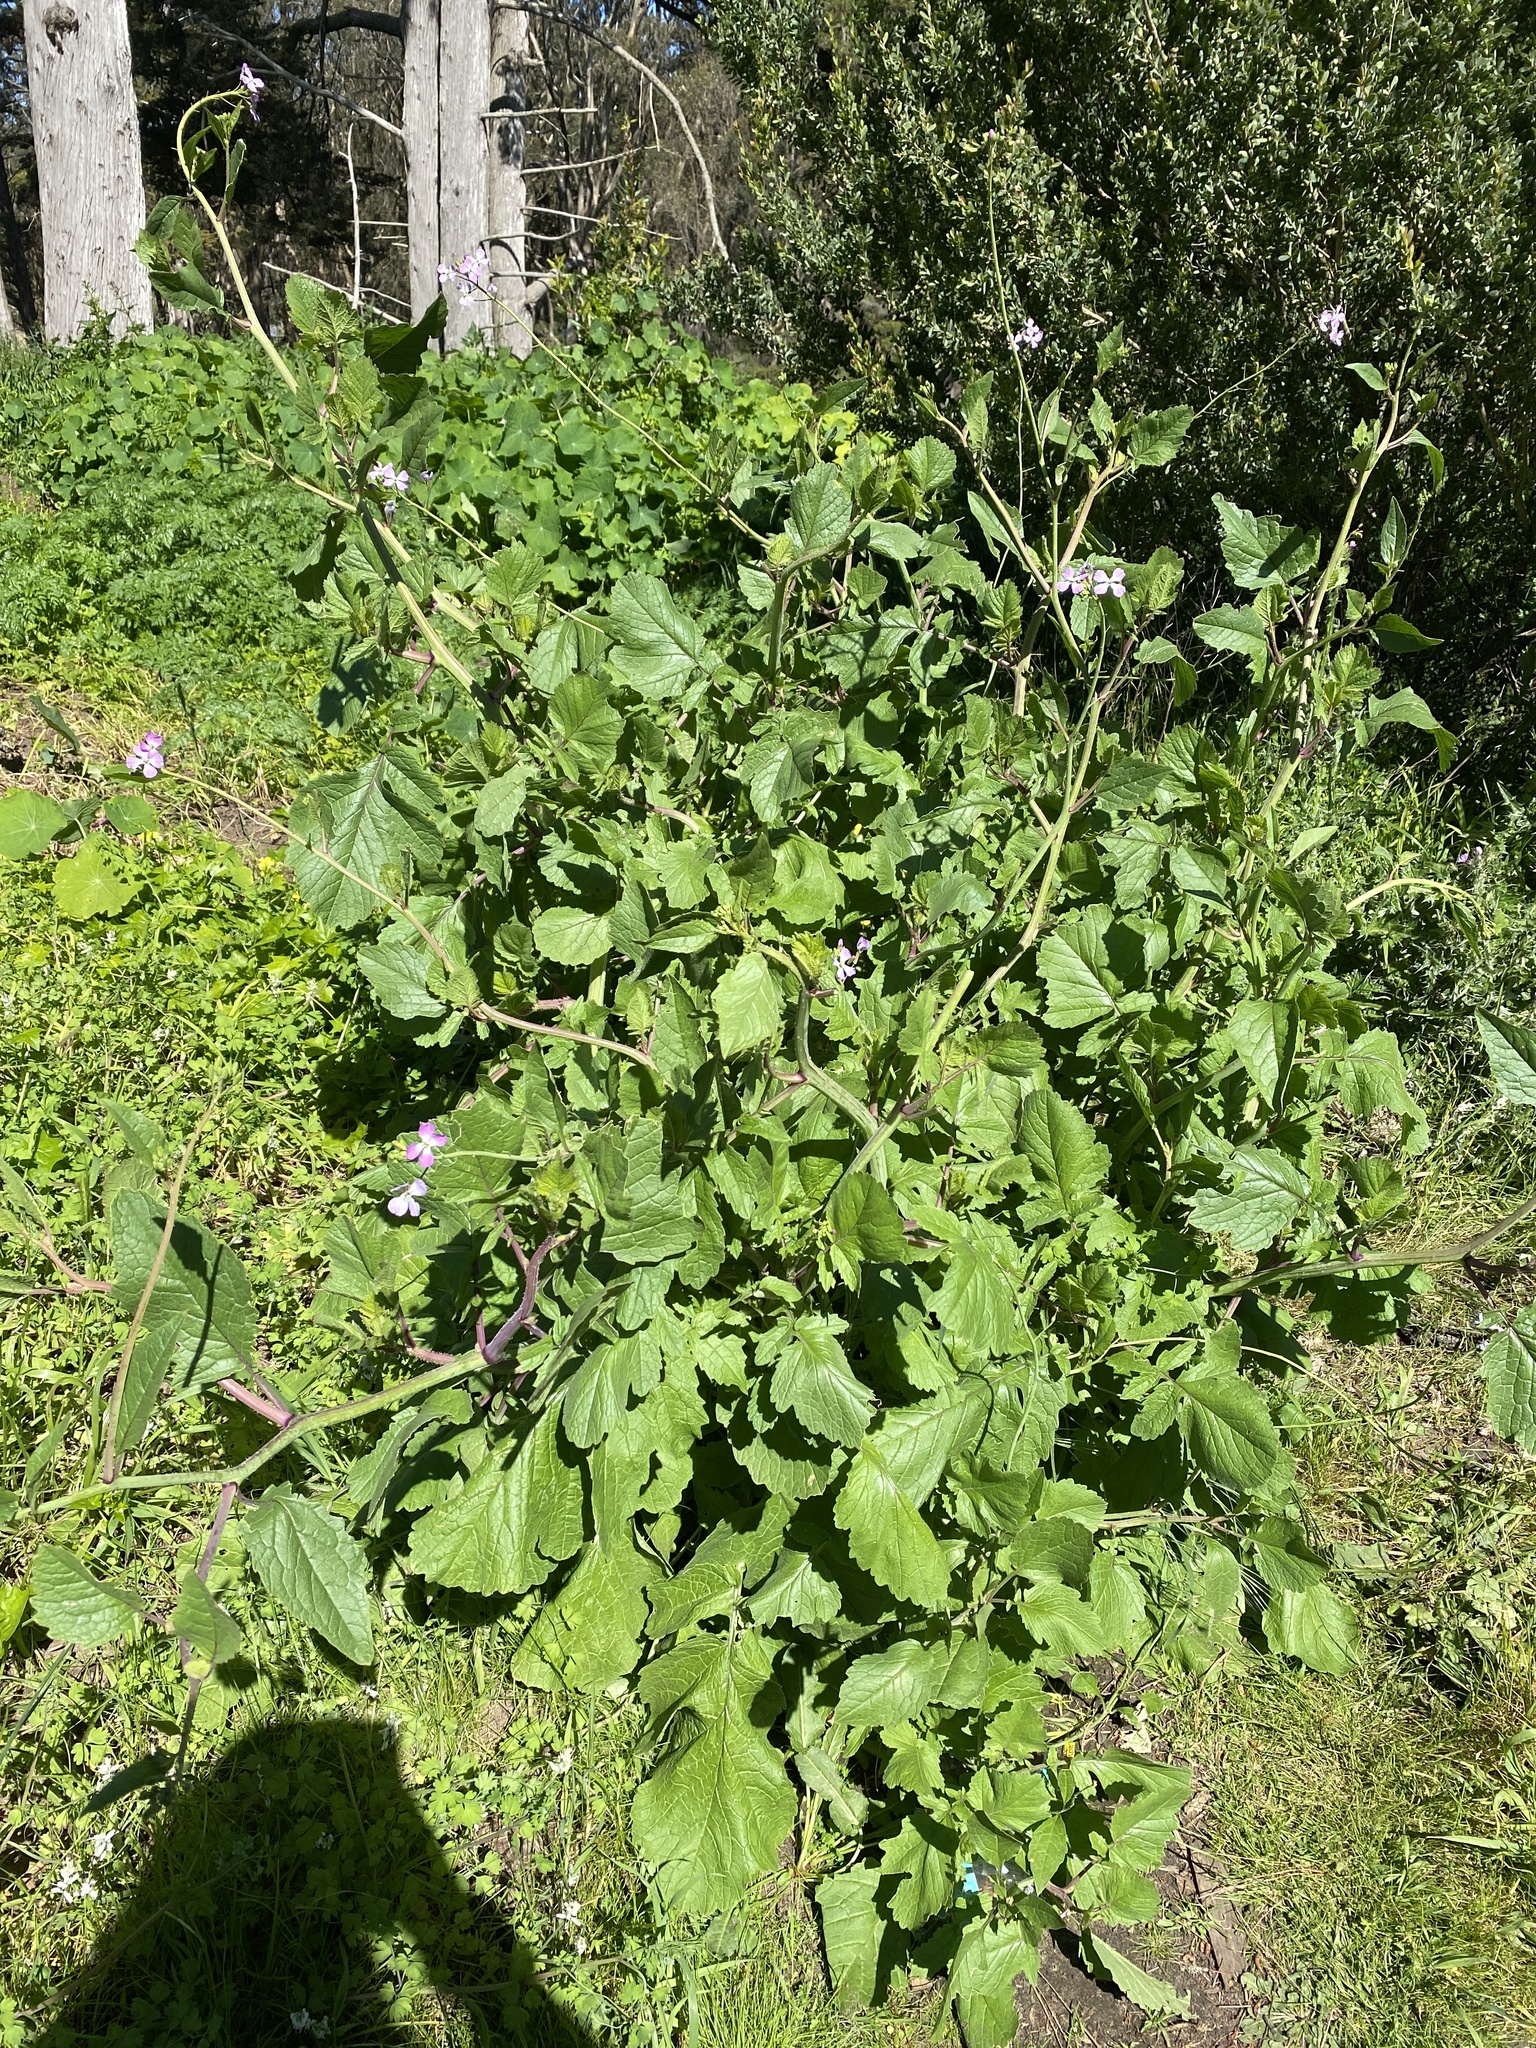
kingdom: Plantae
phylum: Tracheophyta
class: Magnoliopsida
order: Brassicales
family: Brassicaceae
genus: Raphanus
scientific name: Raphanus sativus
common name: Cultivated radish
